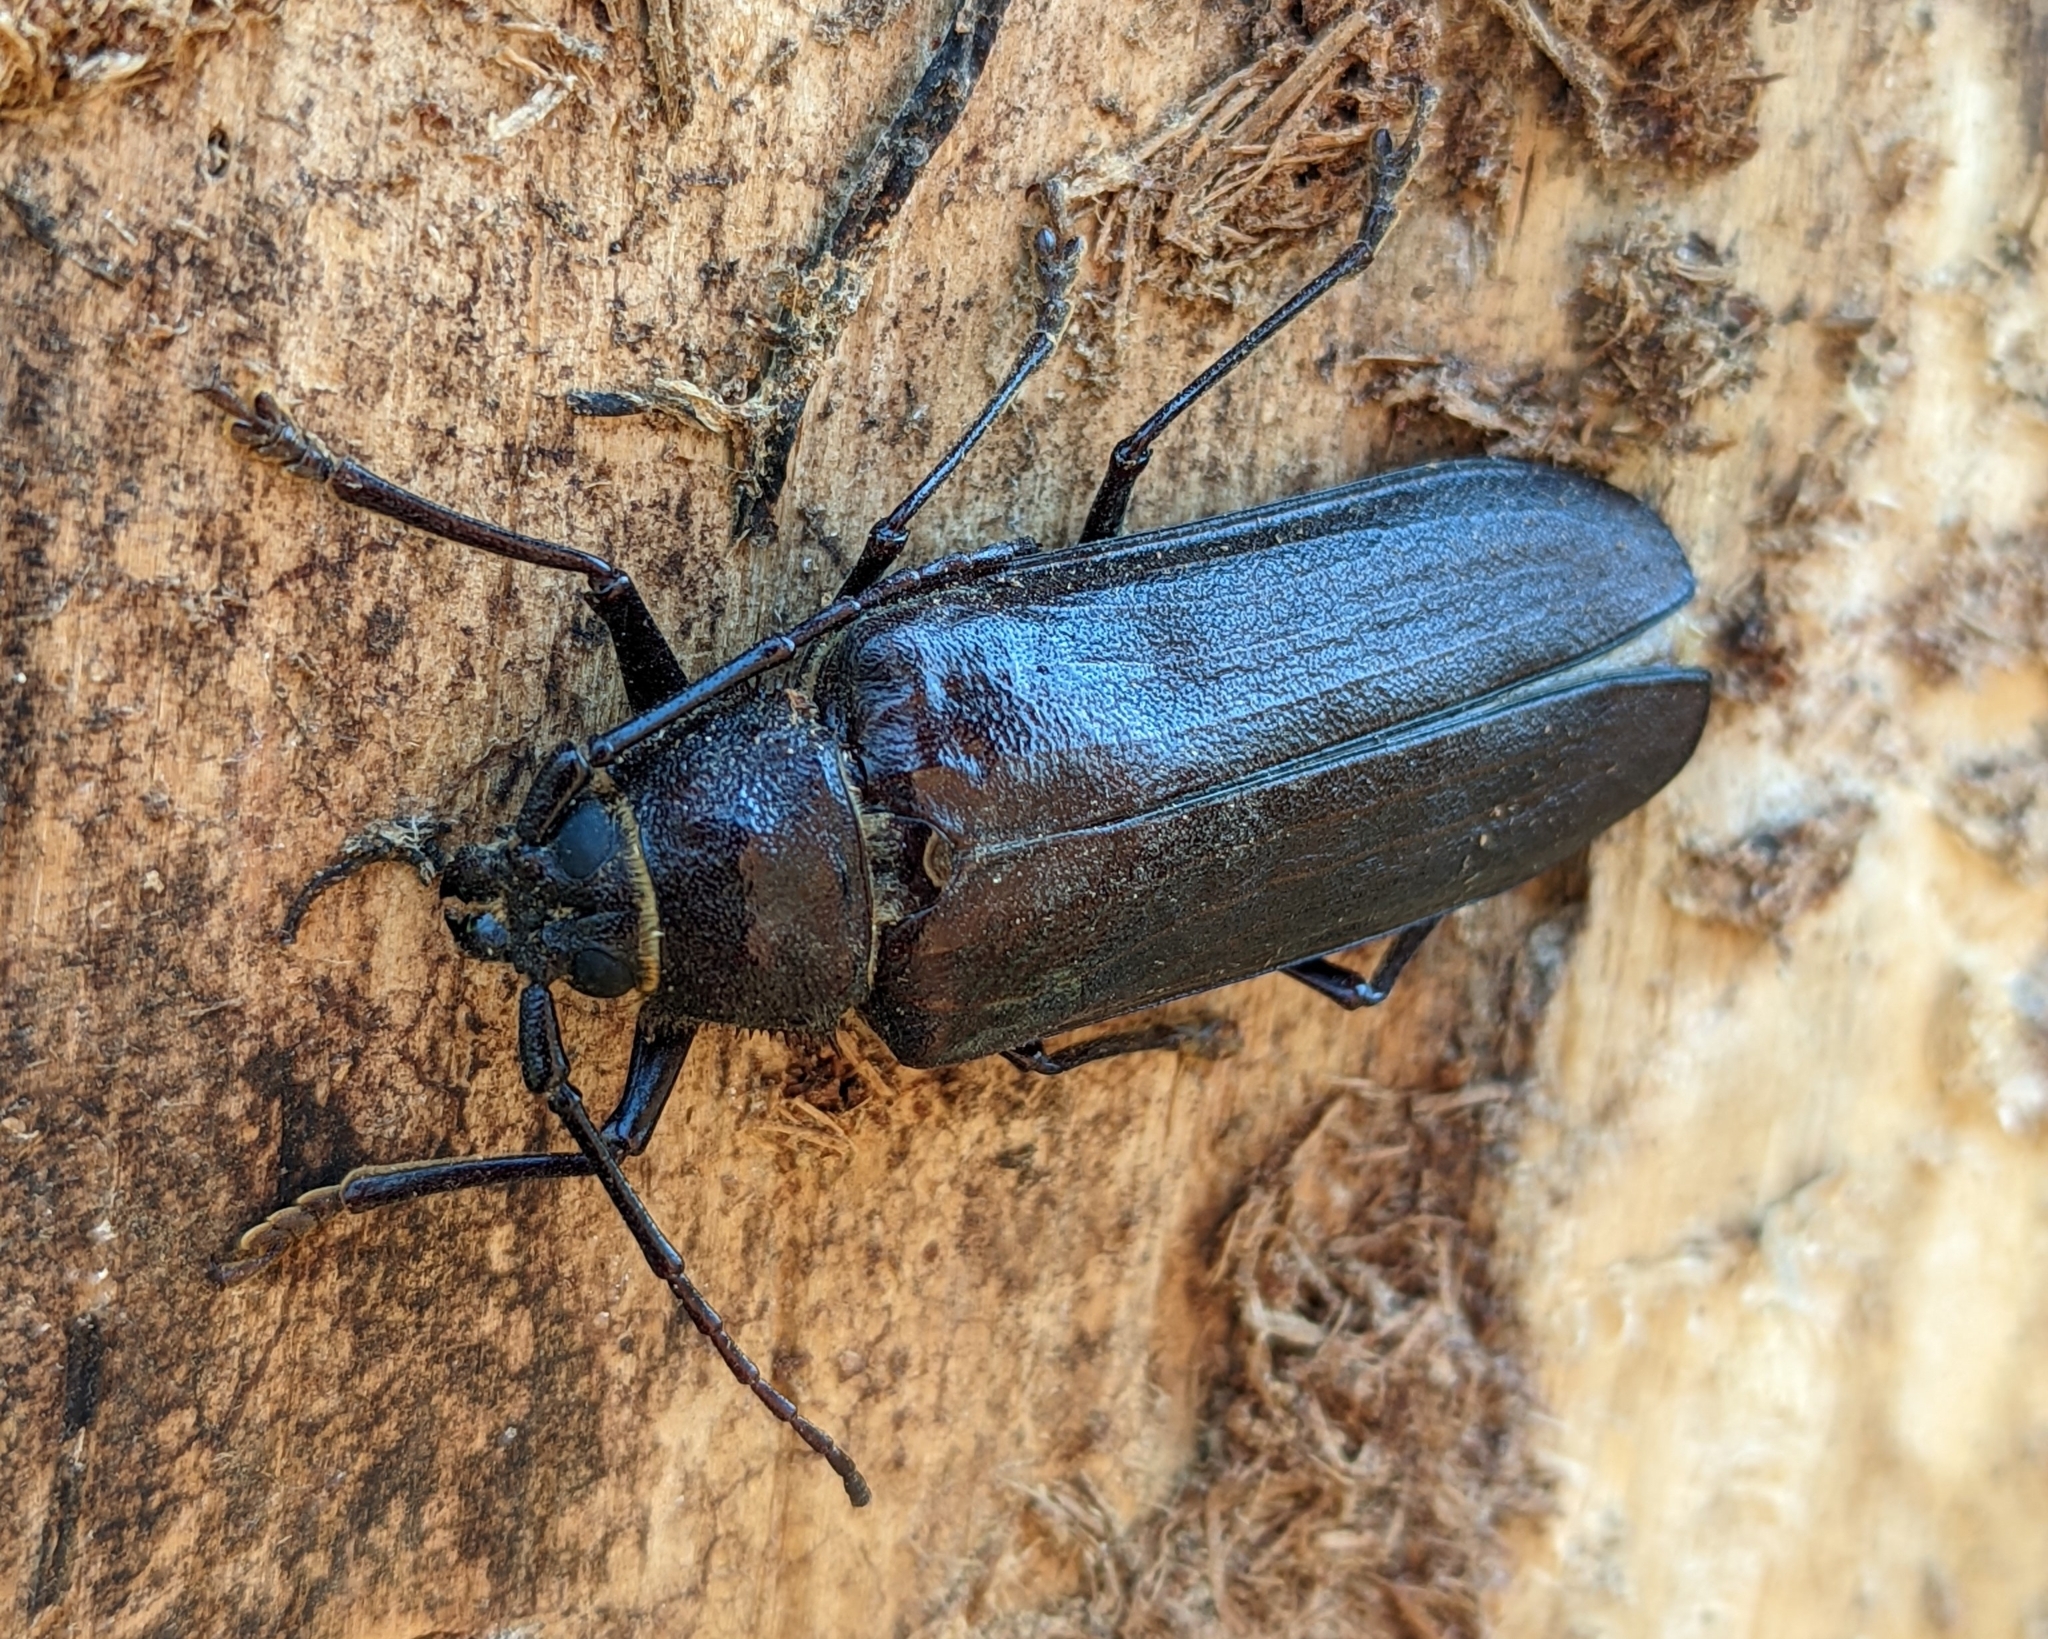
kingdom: Animalia
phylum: Arthropoda
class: Insecta
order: Coleoptera
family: Cerambycidae
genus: Trichocnemis
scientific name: Trichocnemis spiculatus
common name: Long-horned beetle
